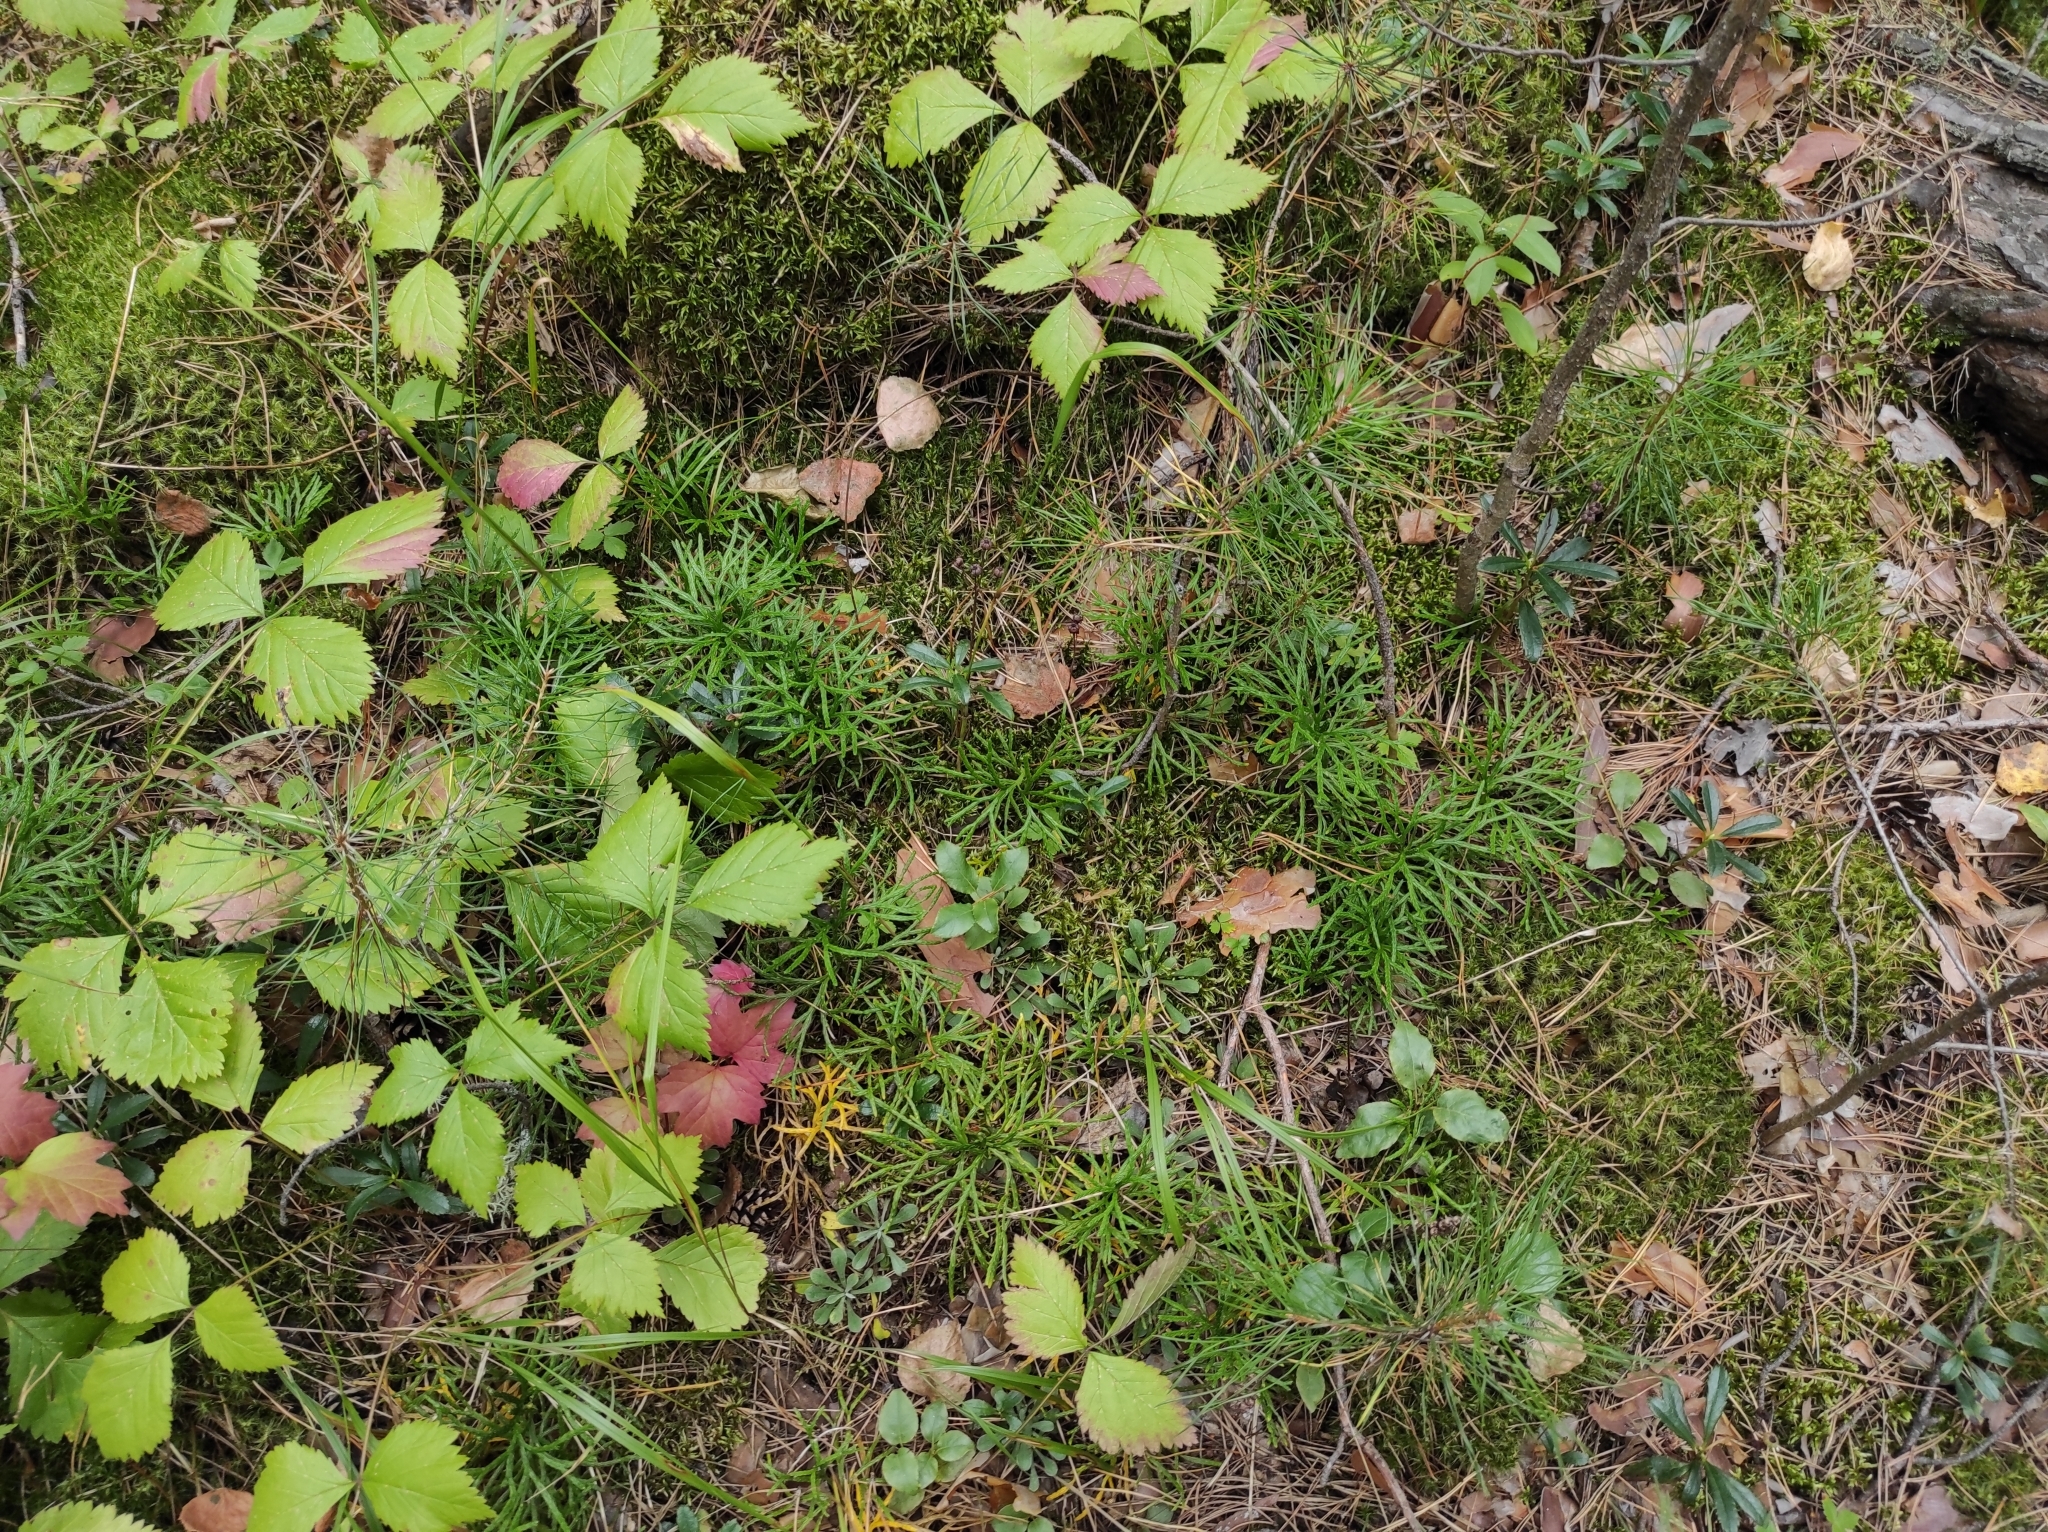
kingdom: Plantae
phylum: Tracheophyta
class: Magnoliopsida
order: Rosales
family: Rosaceae
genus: Rubus
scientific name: Rubus saxatilis
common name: Stone bramble
